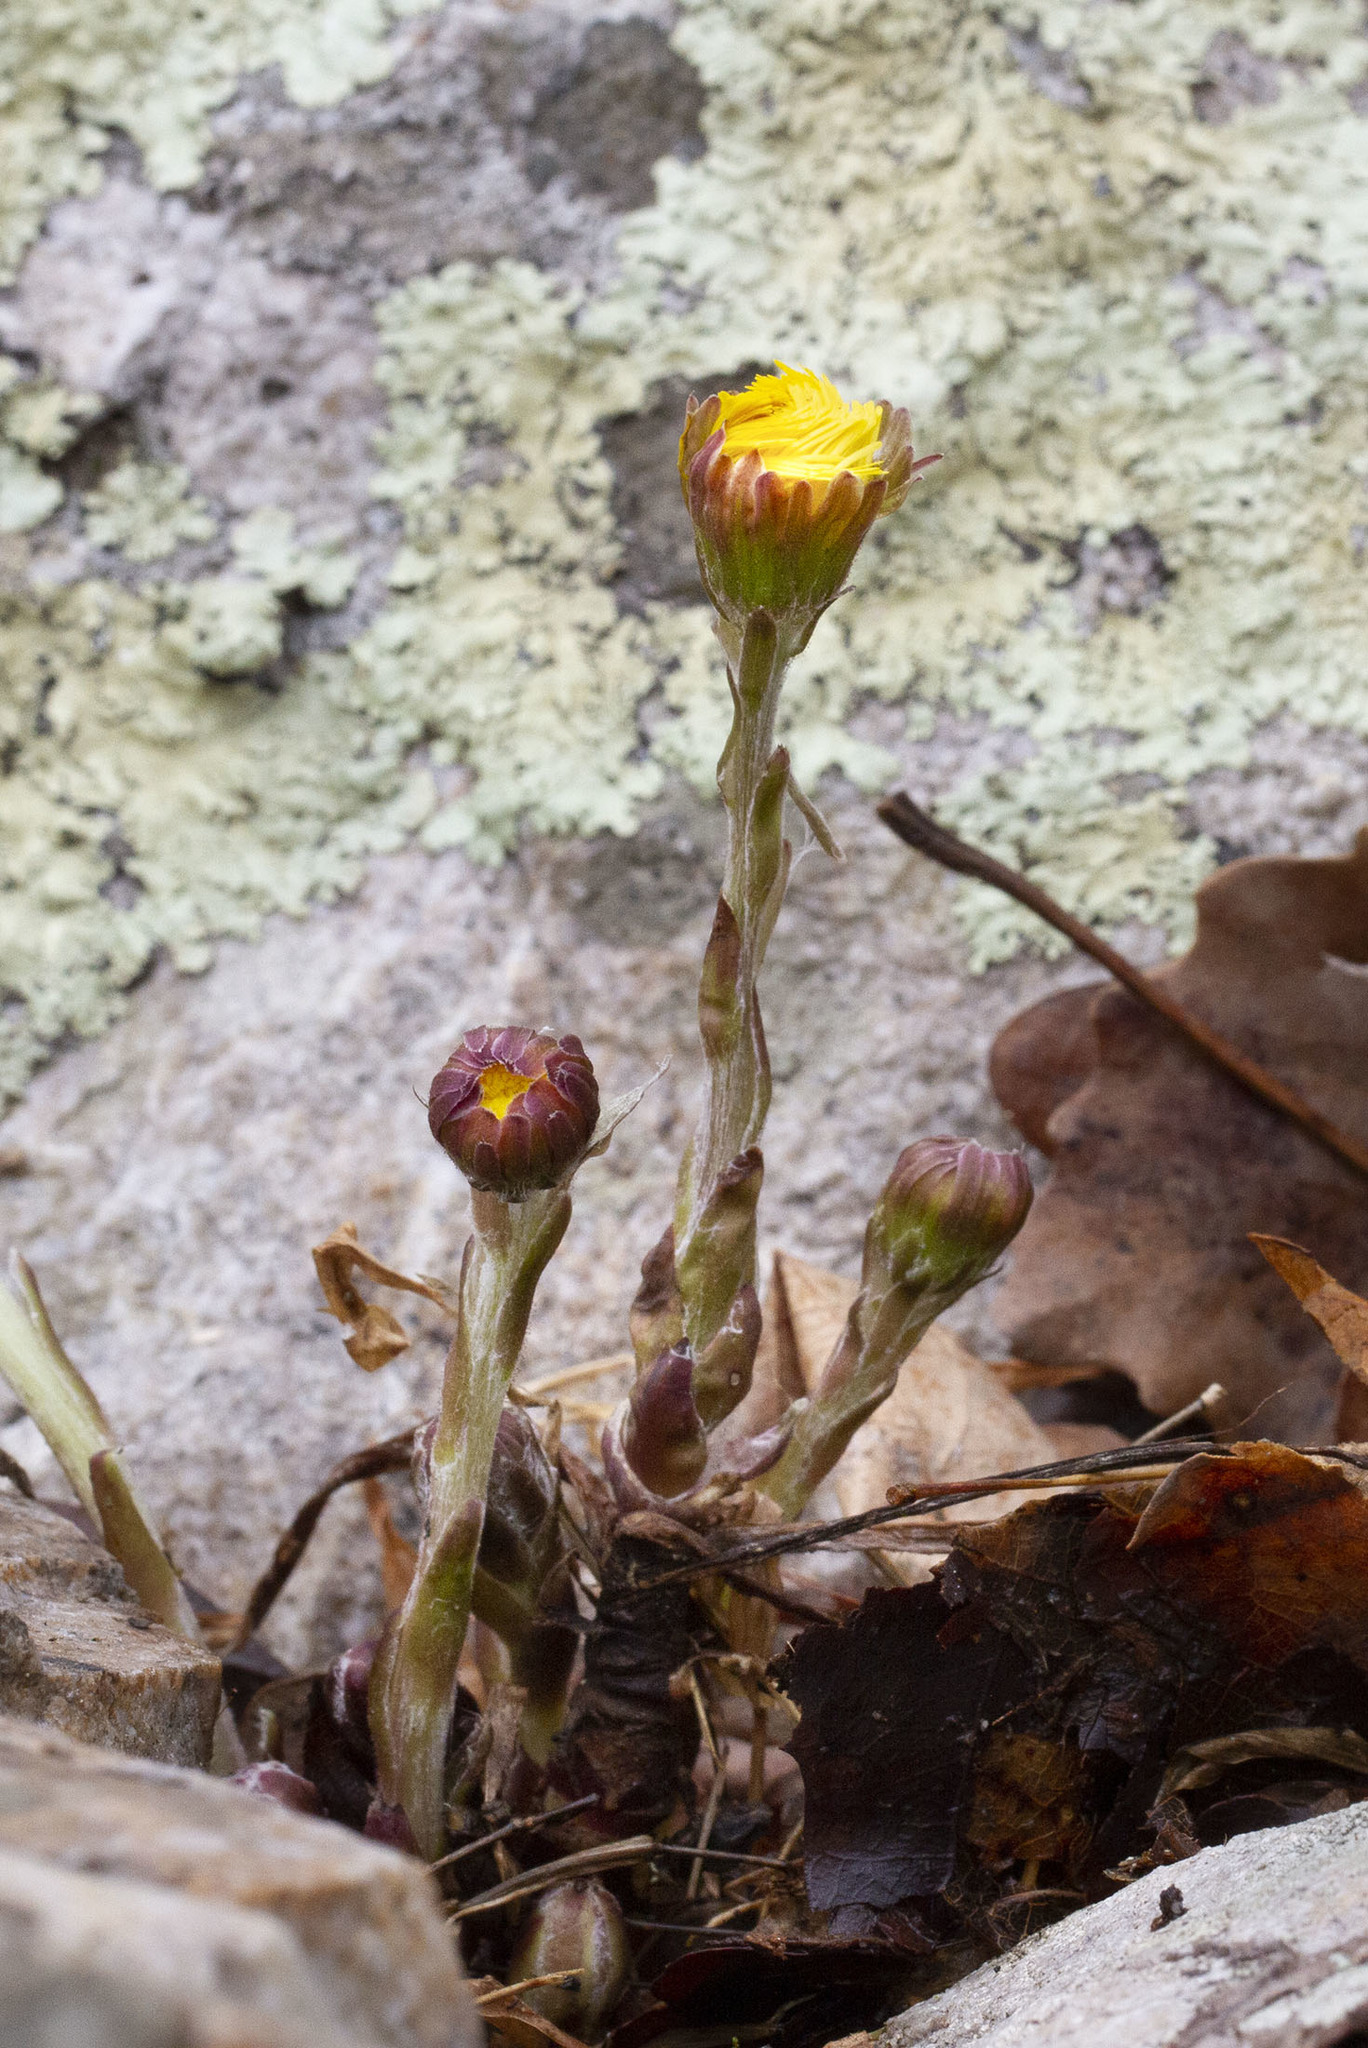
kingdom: Plantae
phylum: Tracheophyta
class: Magnoliopsida
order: Asterales
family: Asteraceae
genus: Tussilago
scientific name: Tussilago farfara
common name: Coltsfoot
